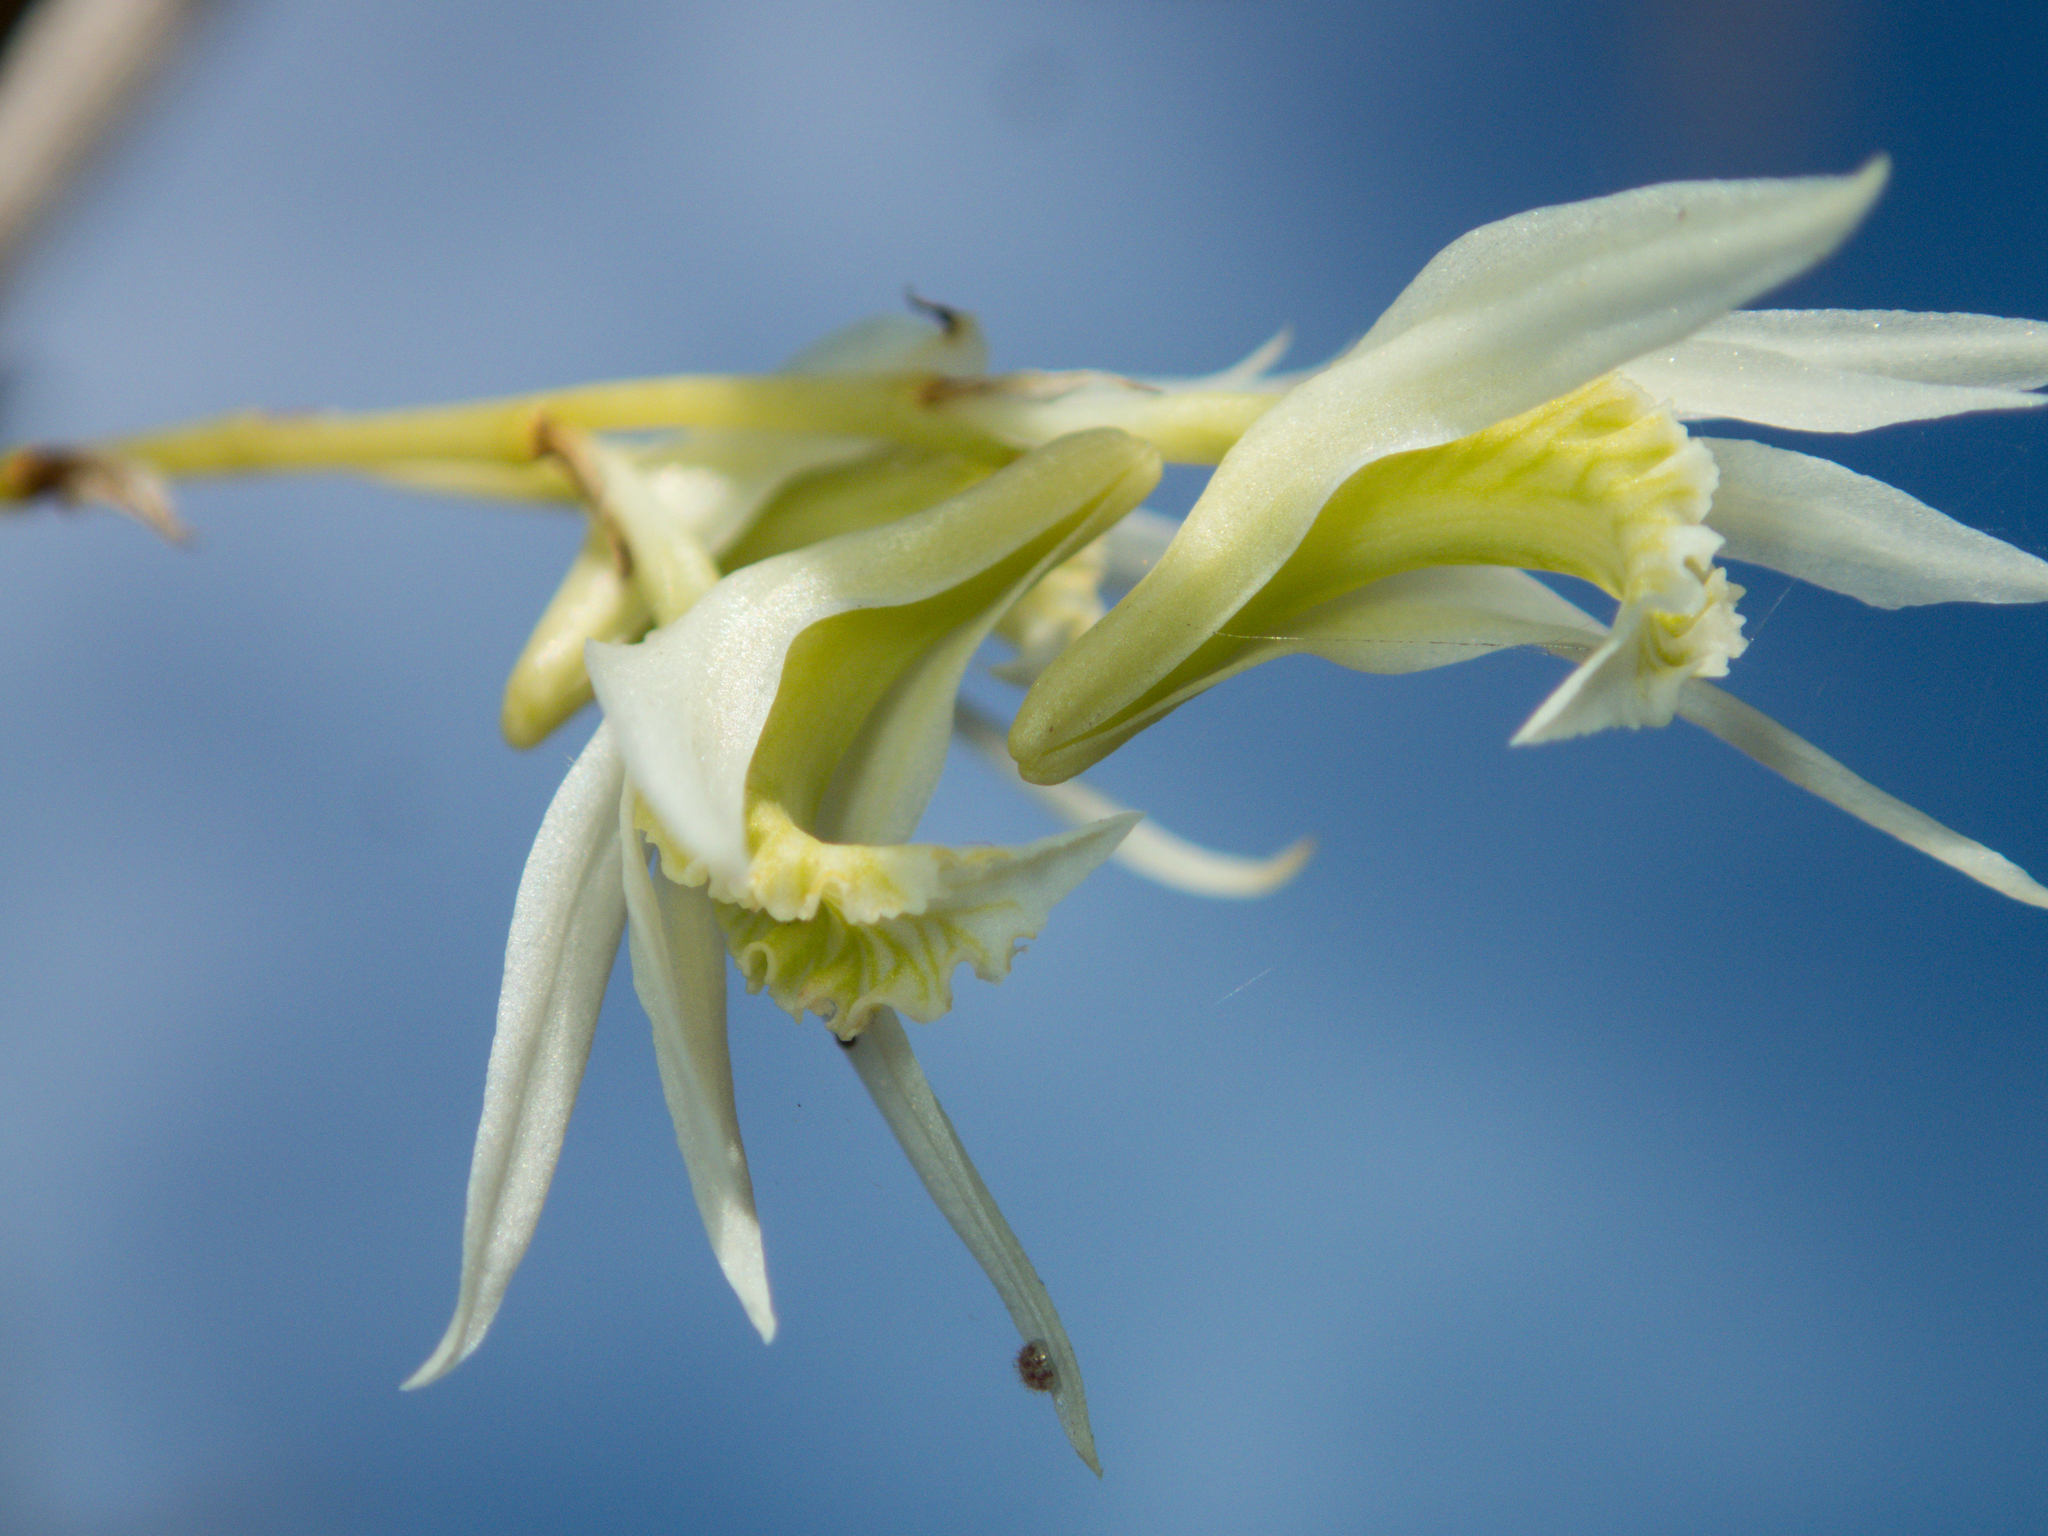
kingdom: Plantae
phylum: Tracheophyta
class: Liliopsida
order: Asparagales
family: Orchidaceae
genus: Dendrobium
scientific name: Dendrobium kratense
